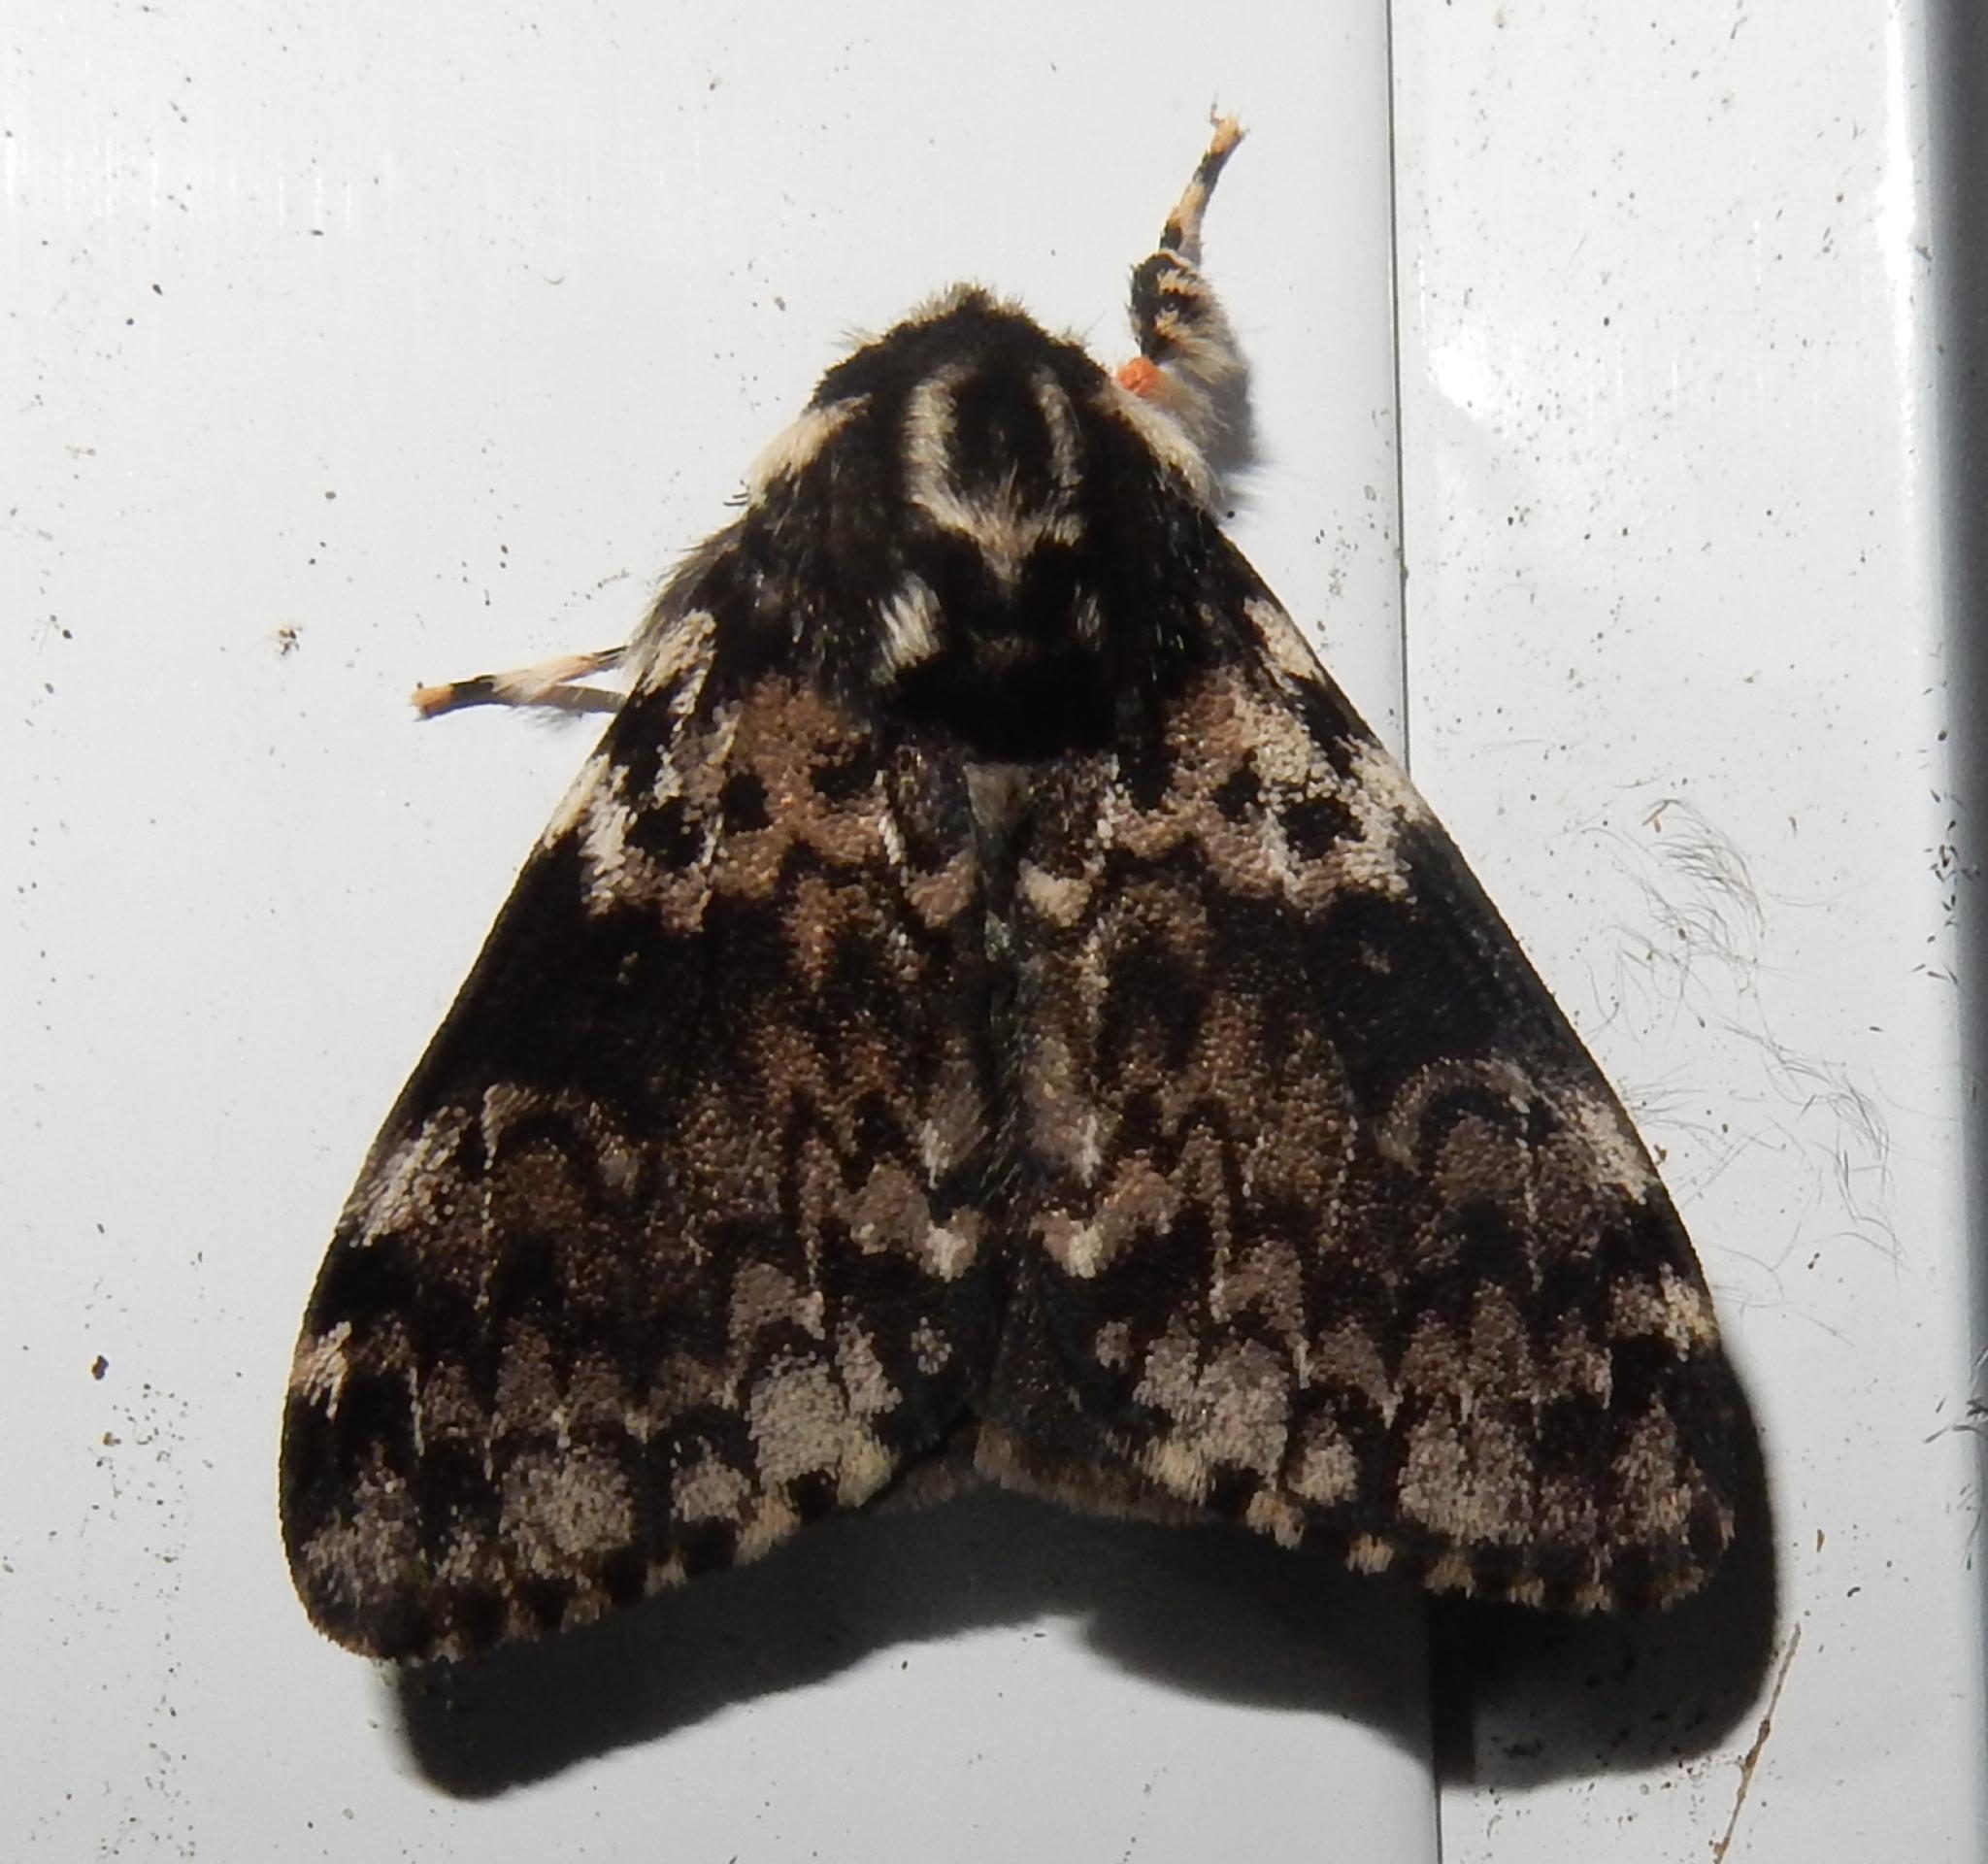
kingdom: Animalia
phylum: Arthropoda
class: Insecta
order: Lepidoptera
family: Erebidae
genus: Lymantria
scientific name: Lymantria kettlewelli
